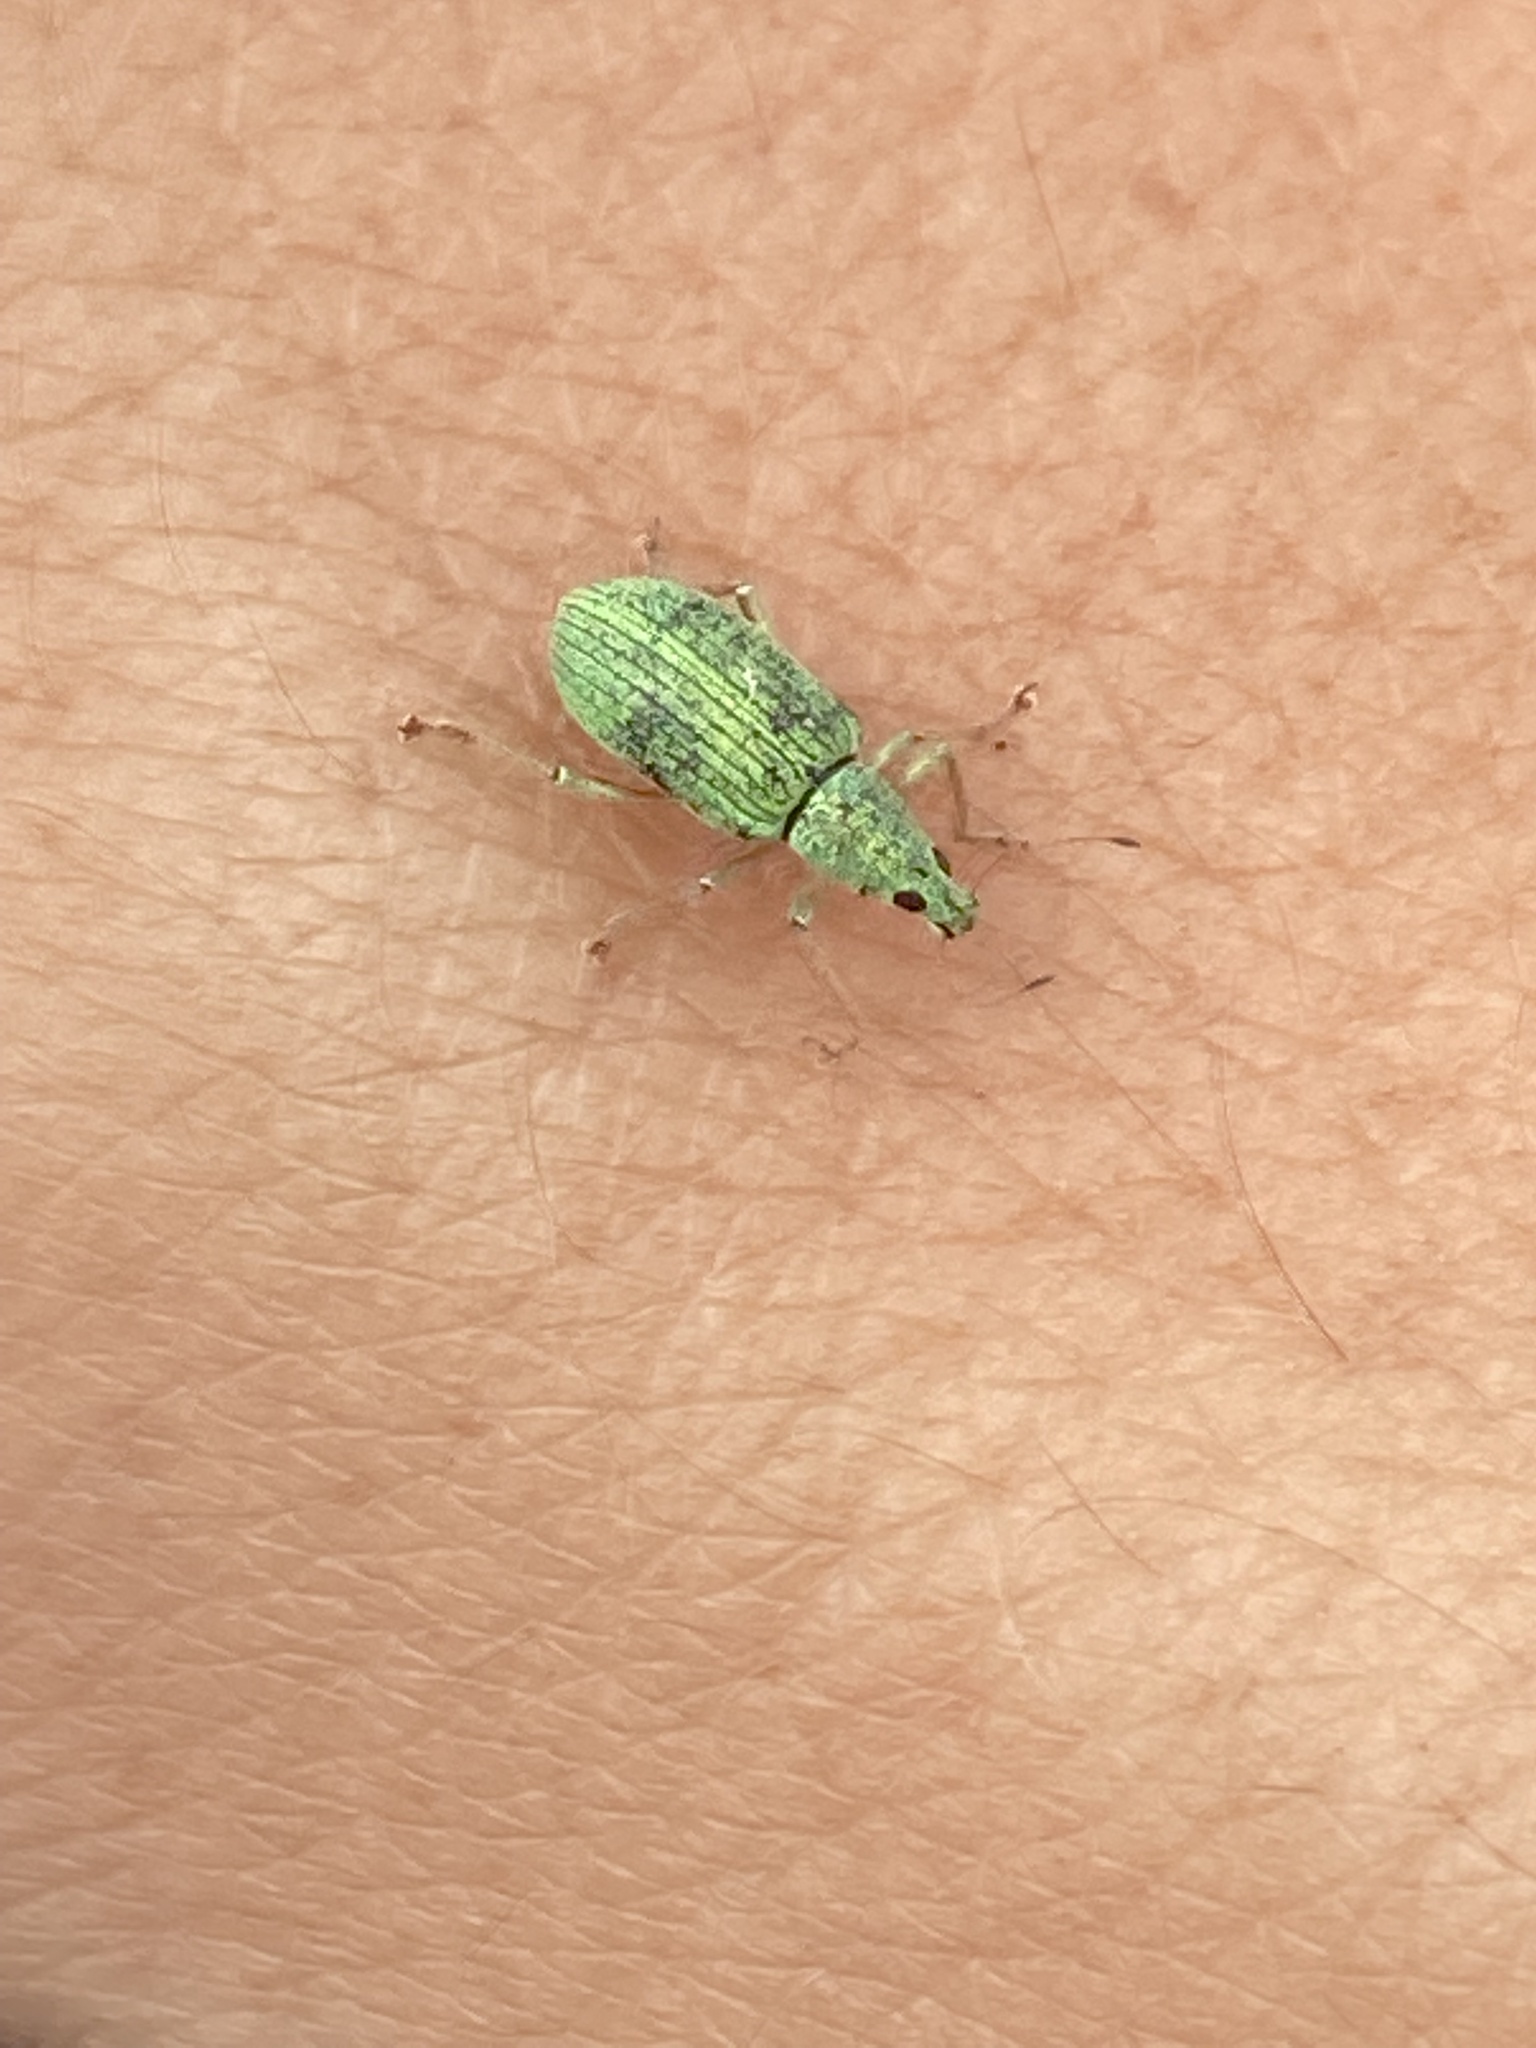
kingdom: Animalia
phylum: Arthropoda
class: Insecta
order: Coleoptera
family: Curculionidae
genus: Polydrusus
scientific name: Polydrusus formosus
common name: Weevil
